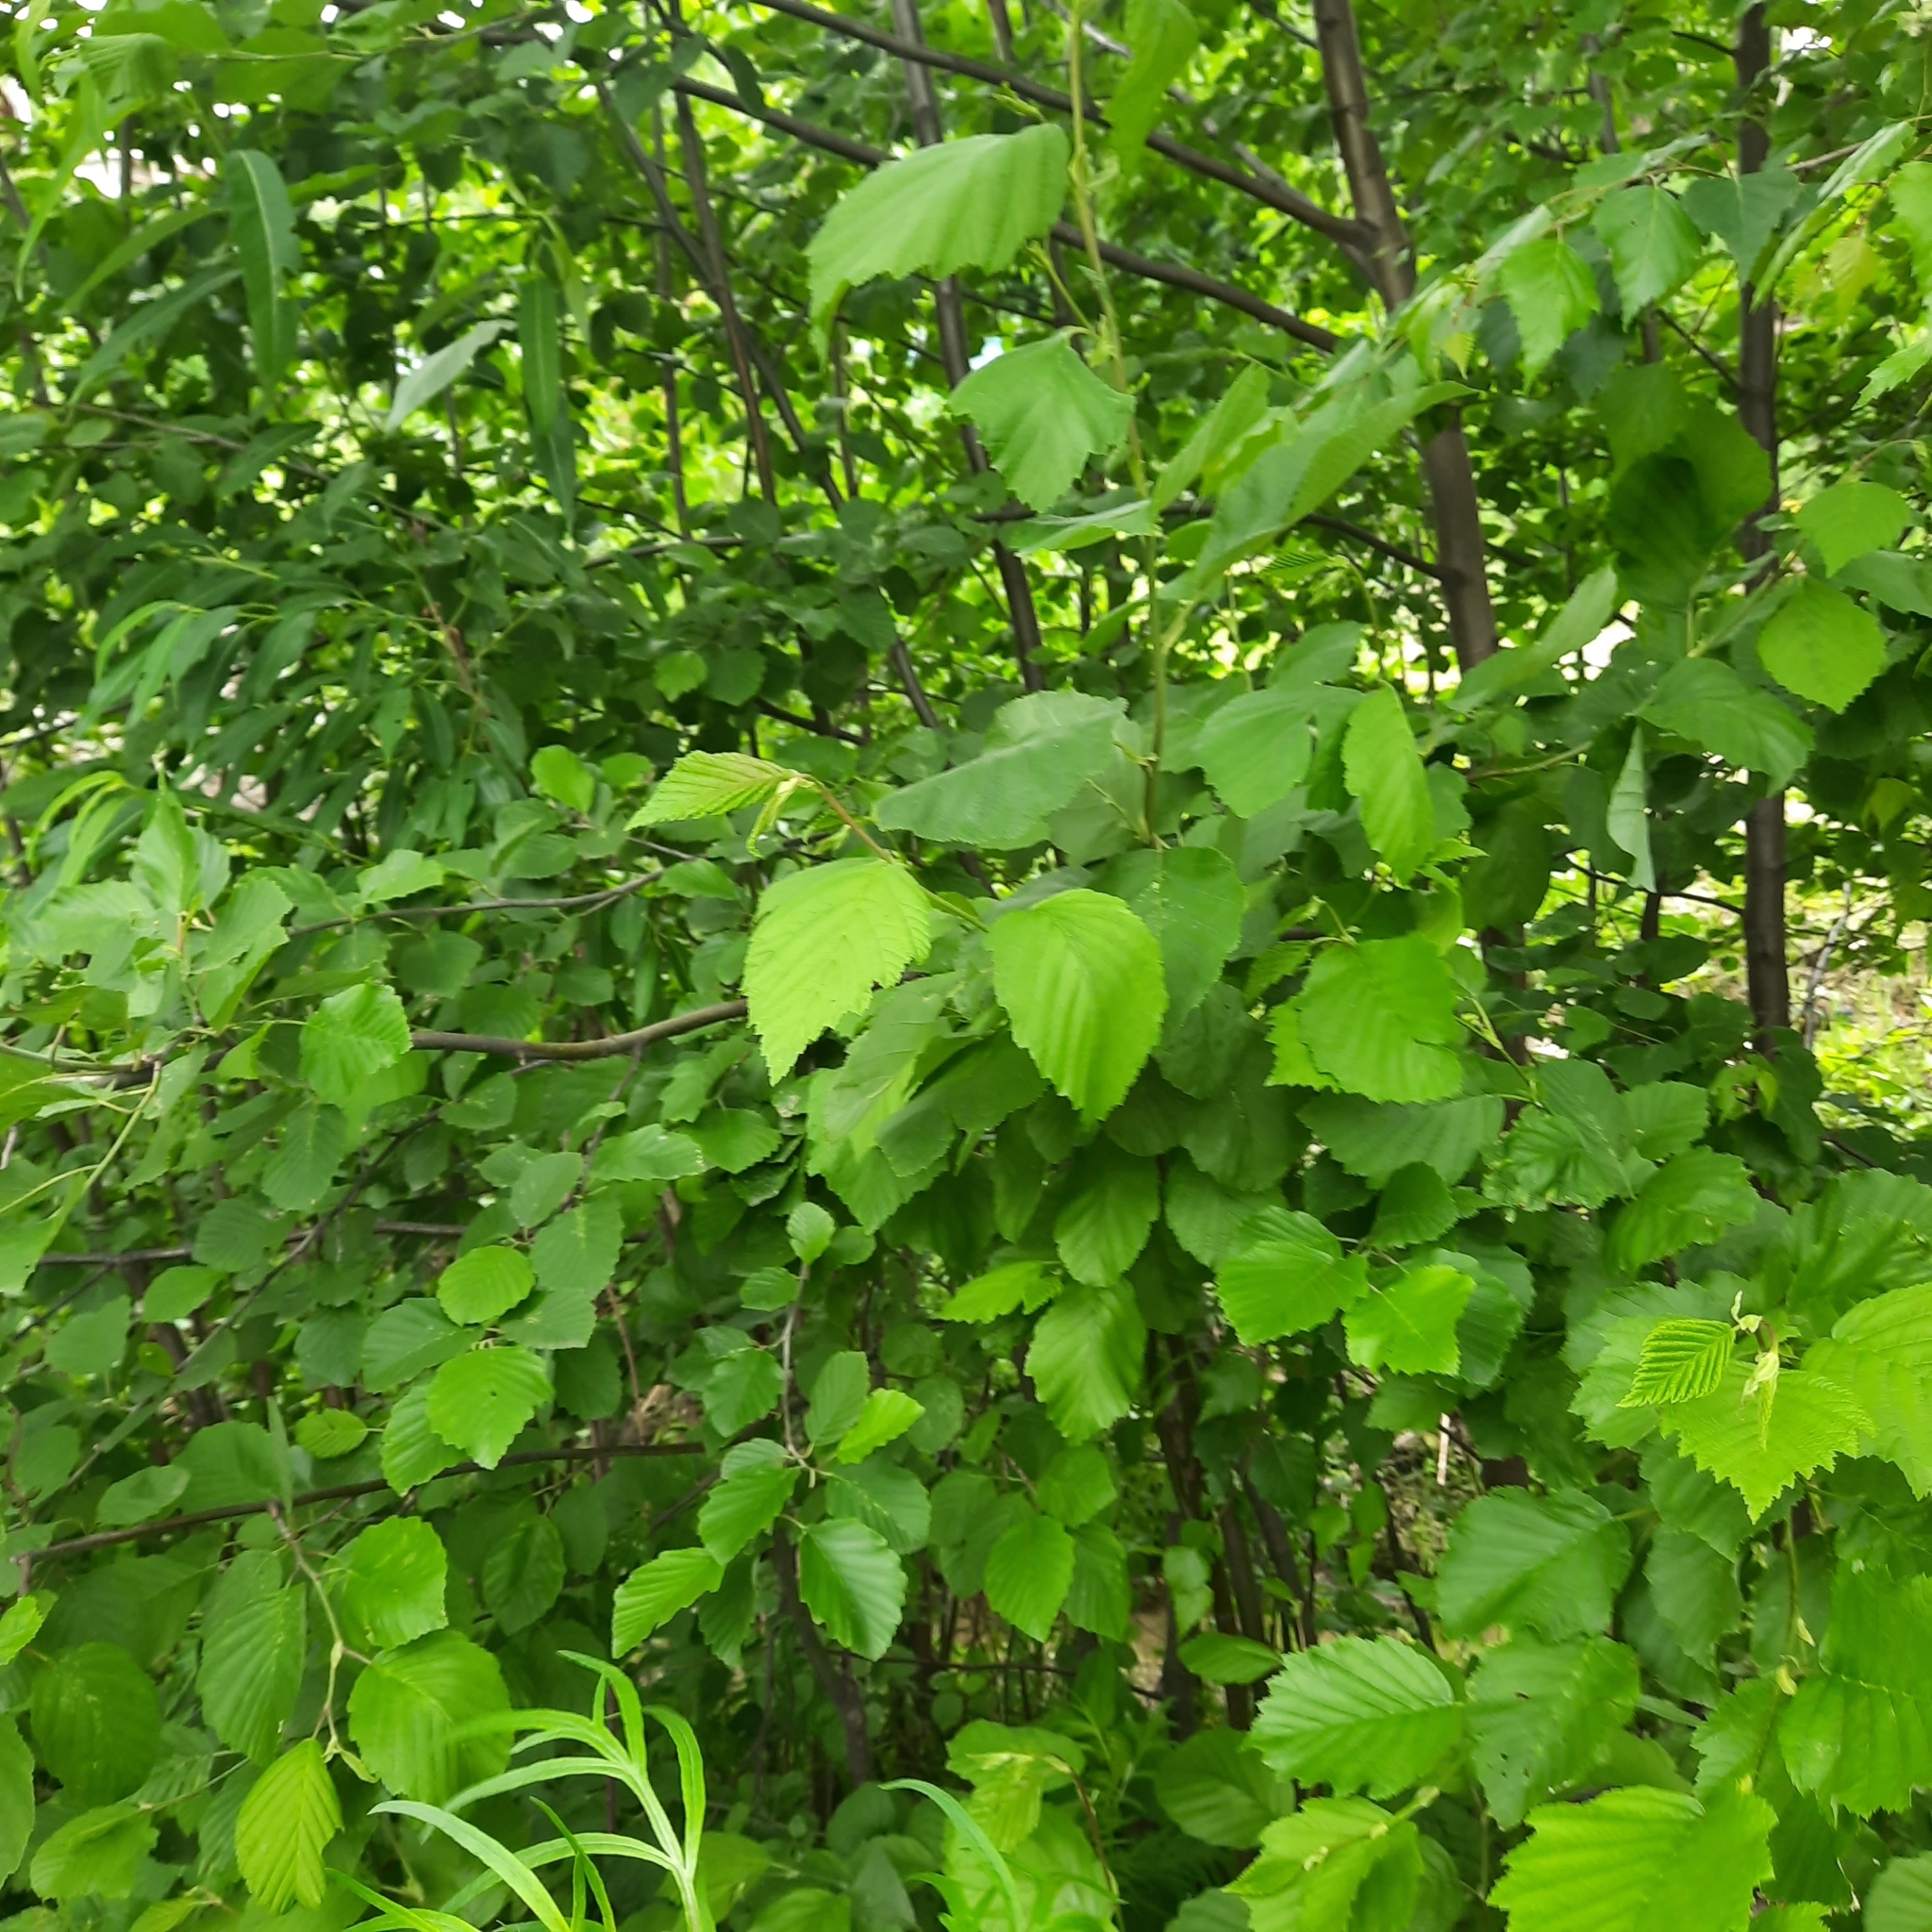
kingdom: Plantae
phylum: Tracheophyta
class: Magnoliopsida
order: Fagales
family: Betulaceae
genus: Alnus
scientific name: Alnus incana
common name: Grey alder
